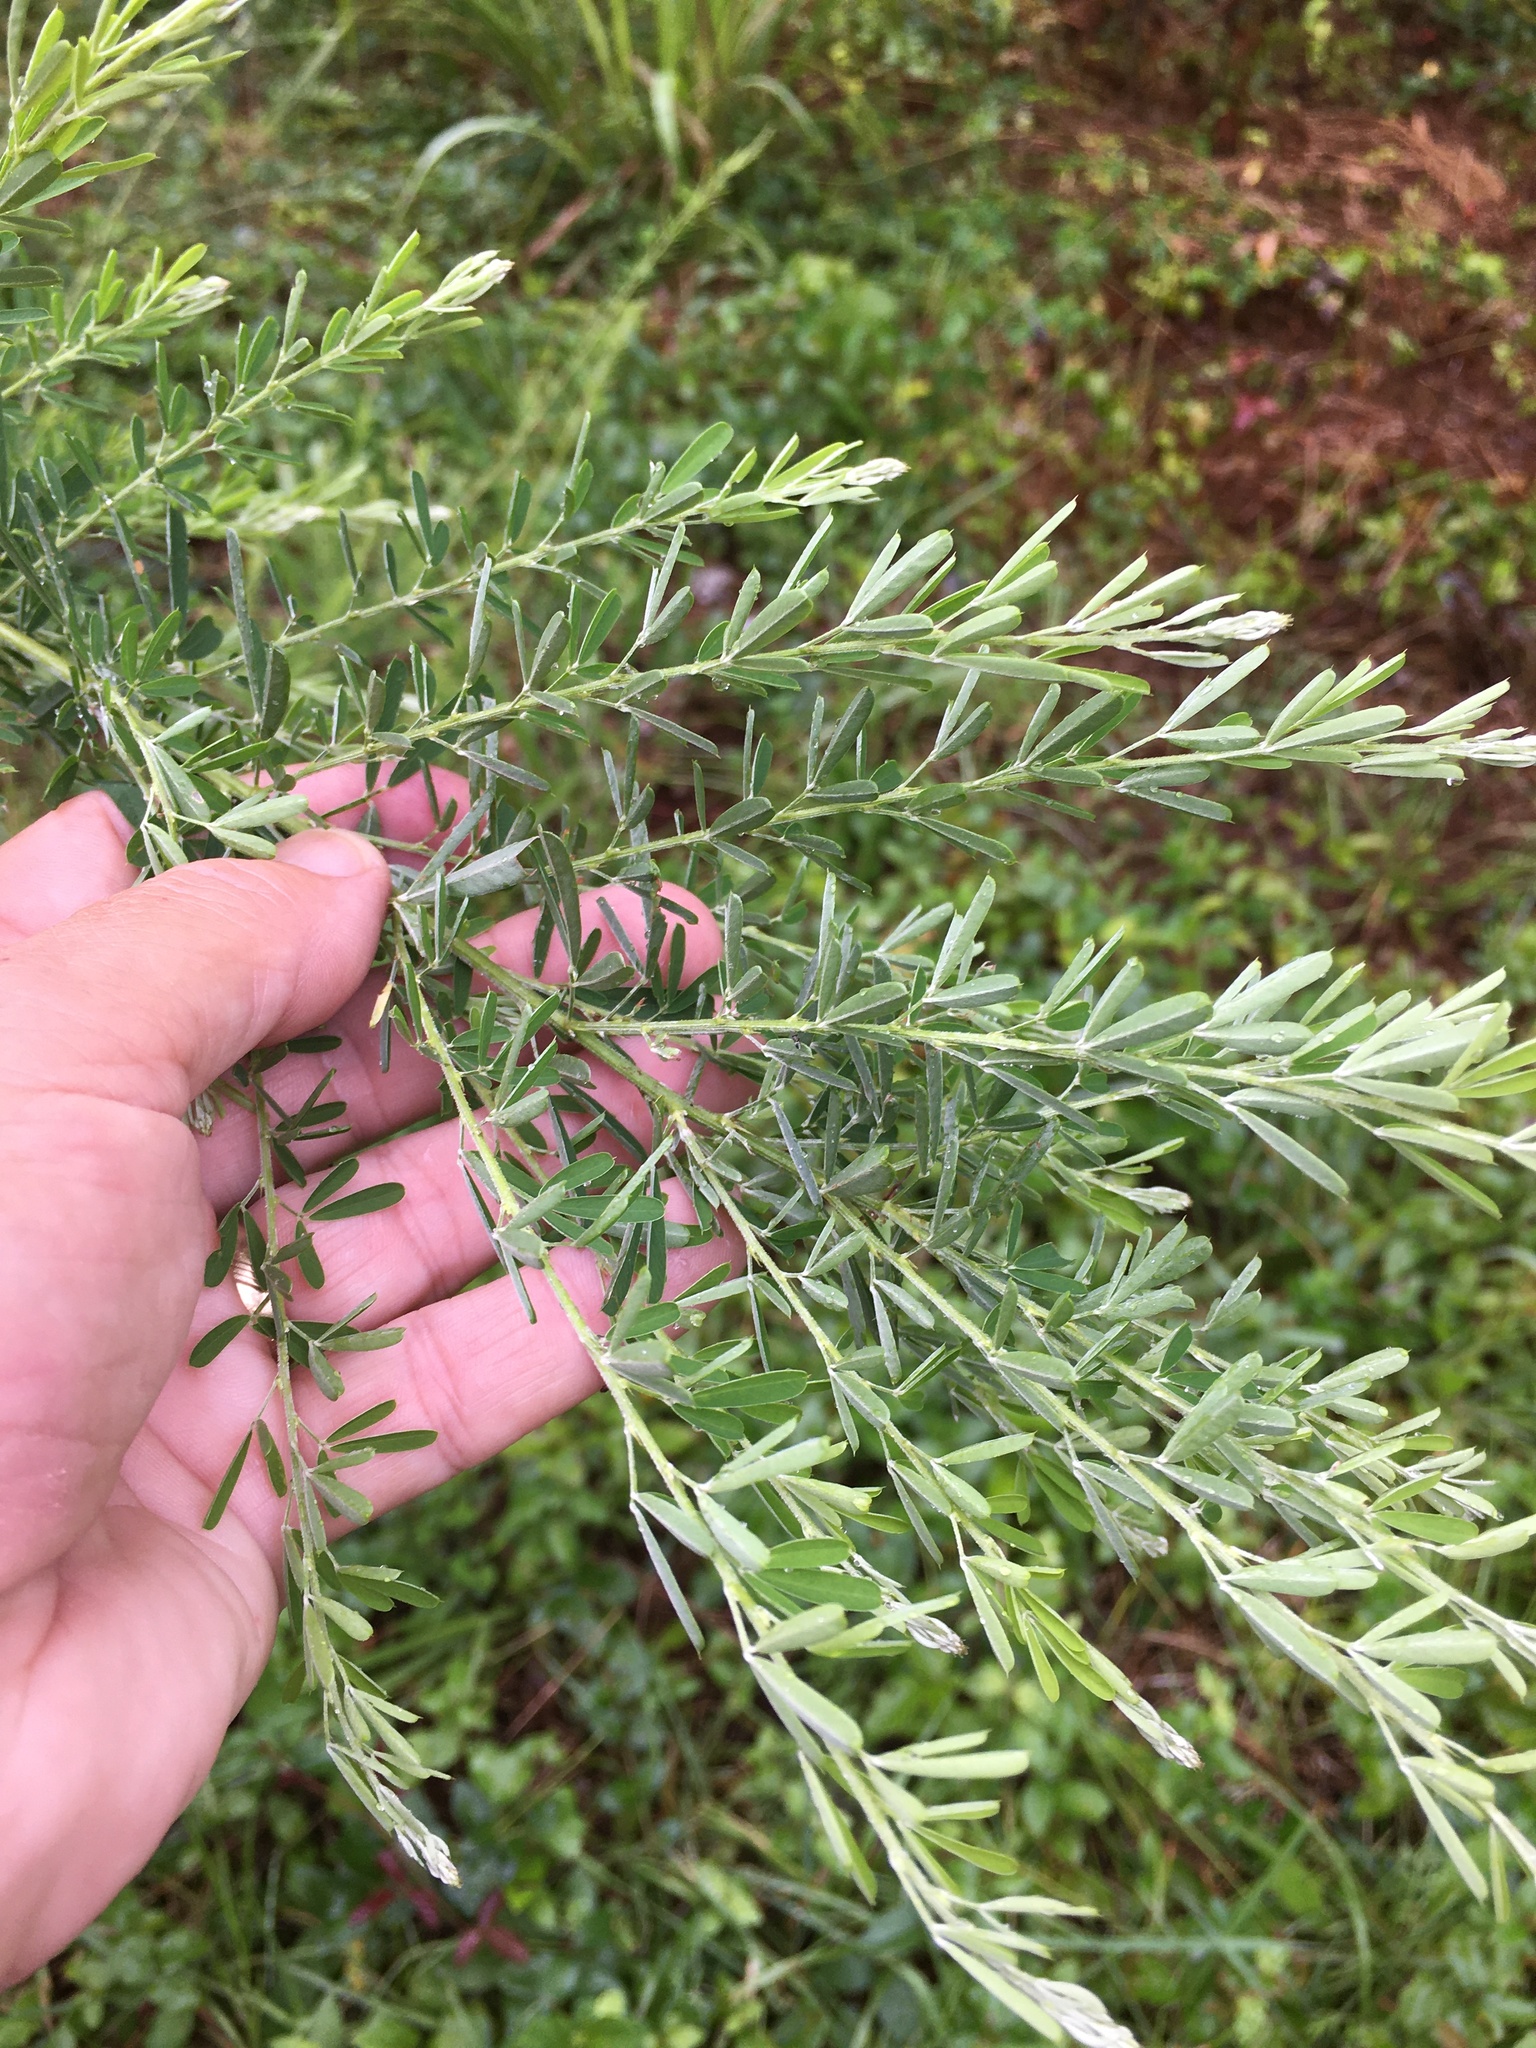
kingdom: Plantae
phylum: Tracheophyta
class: Magnoliopsida
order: Fabales
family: Fabaceae
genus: Lespedeza
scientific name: Lespedeza cuneata
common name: Chinese bush-clover
